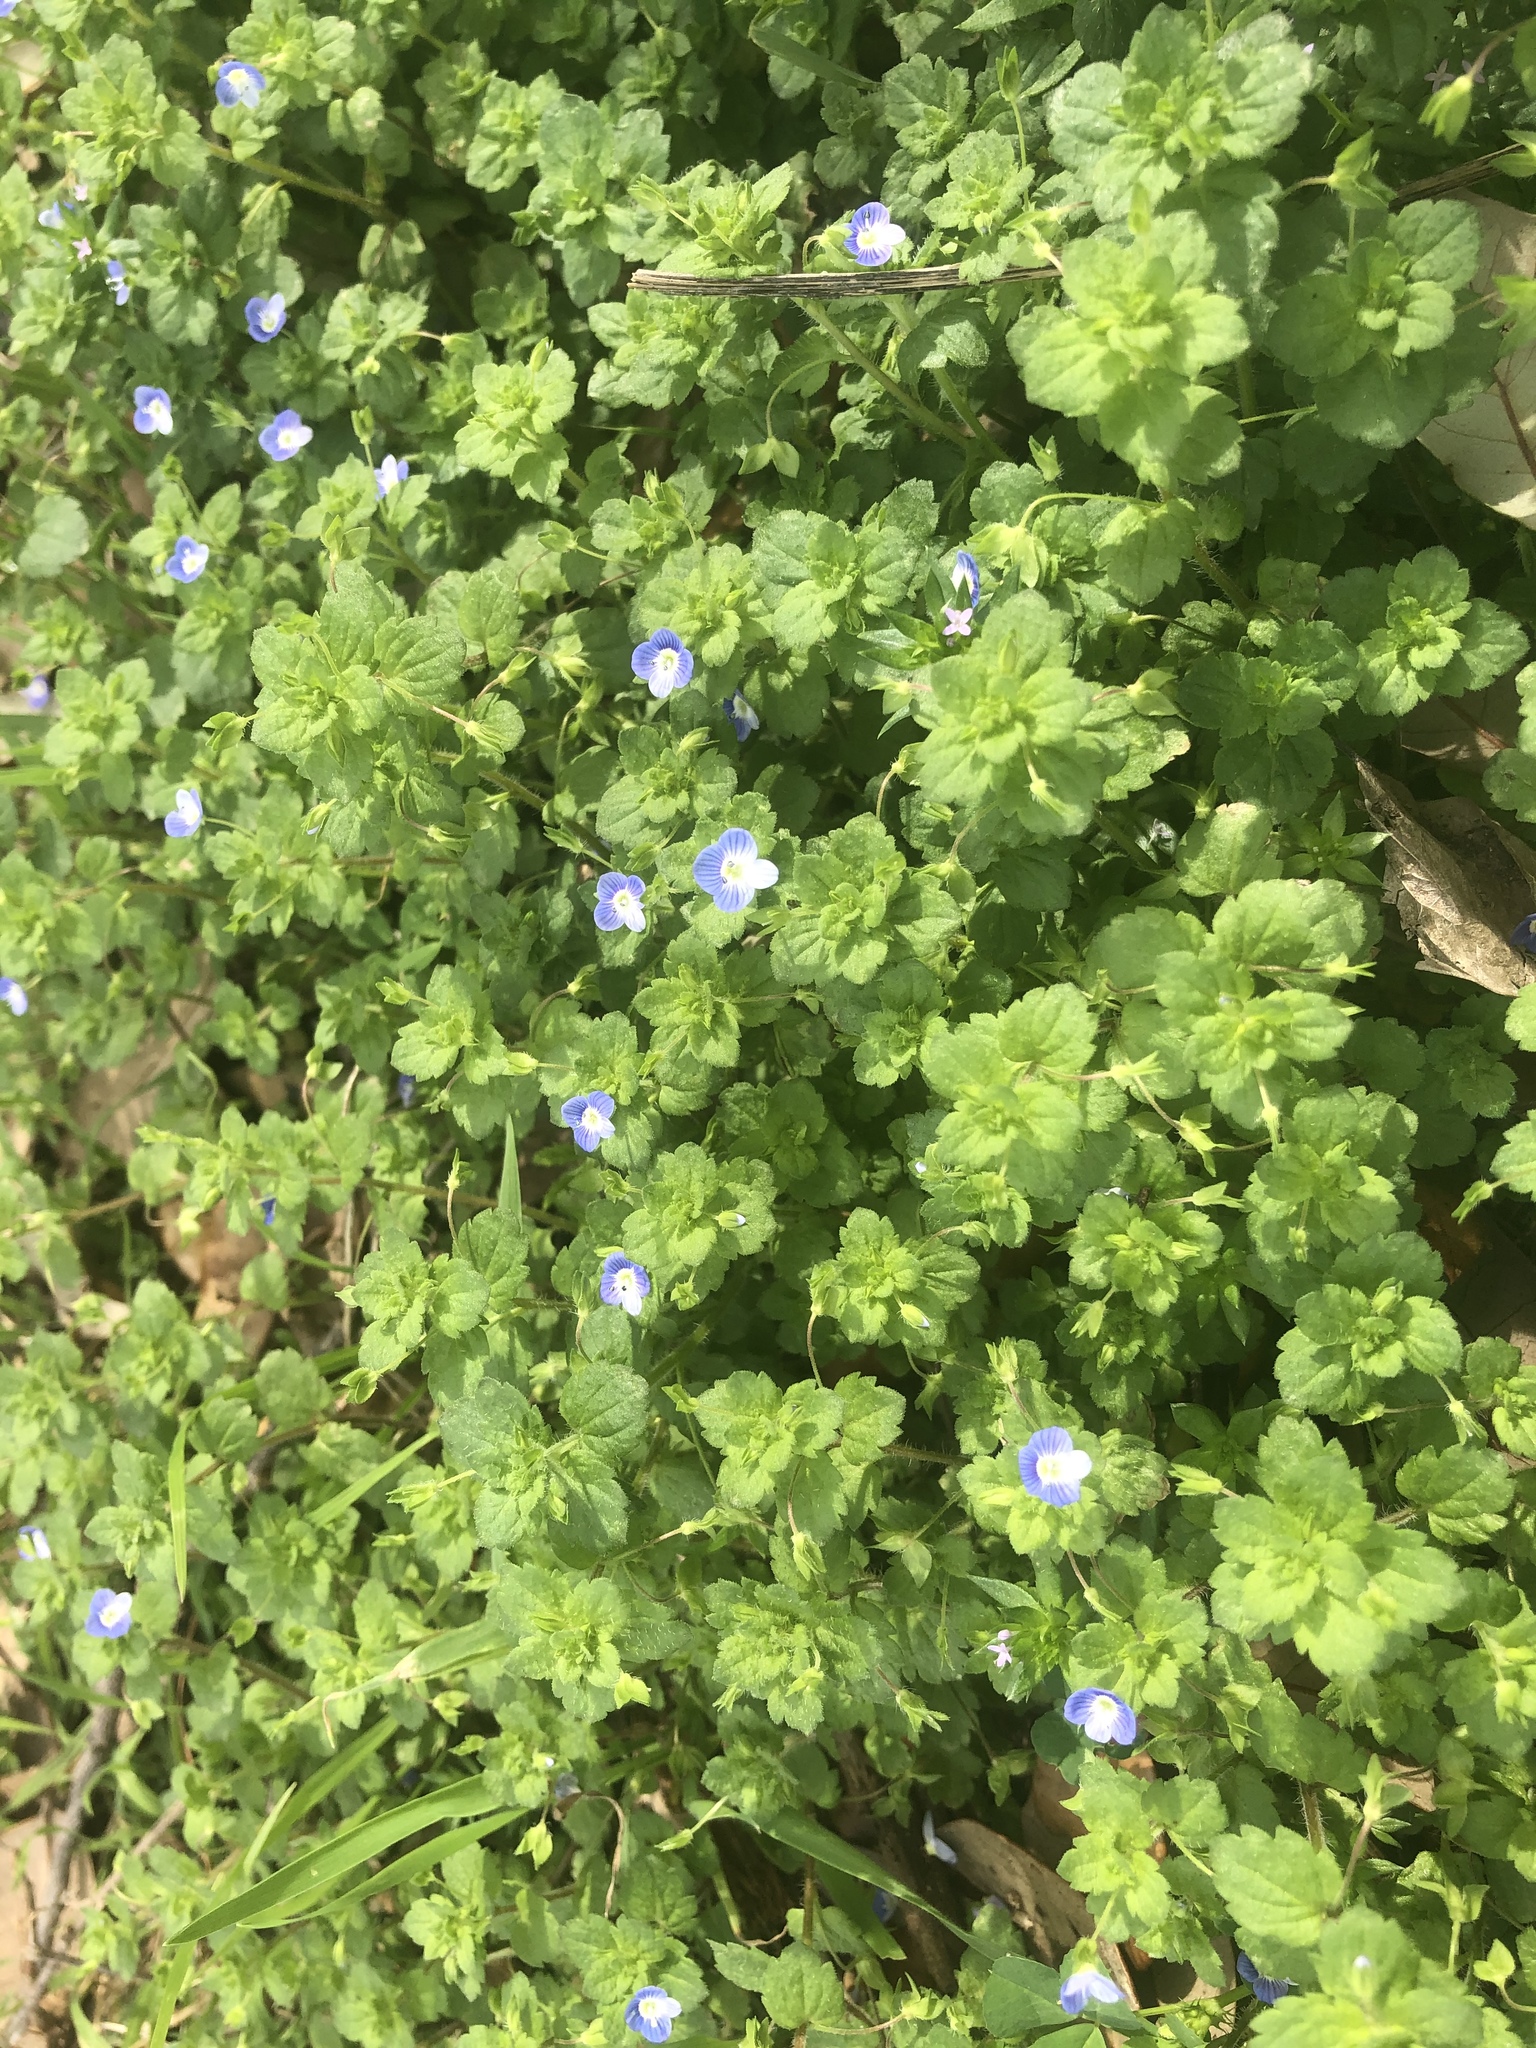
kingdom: Plantae
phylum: Tracheophyta
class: Magnoliopsida
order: Lamiales
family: Plantaginaceae
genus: Veronica
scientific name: Veronica persica
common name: Common field-speedwell
